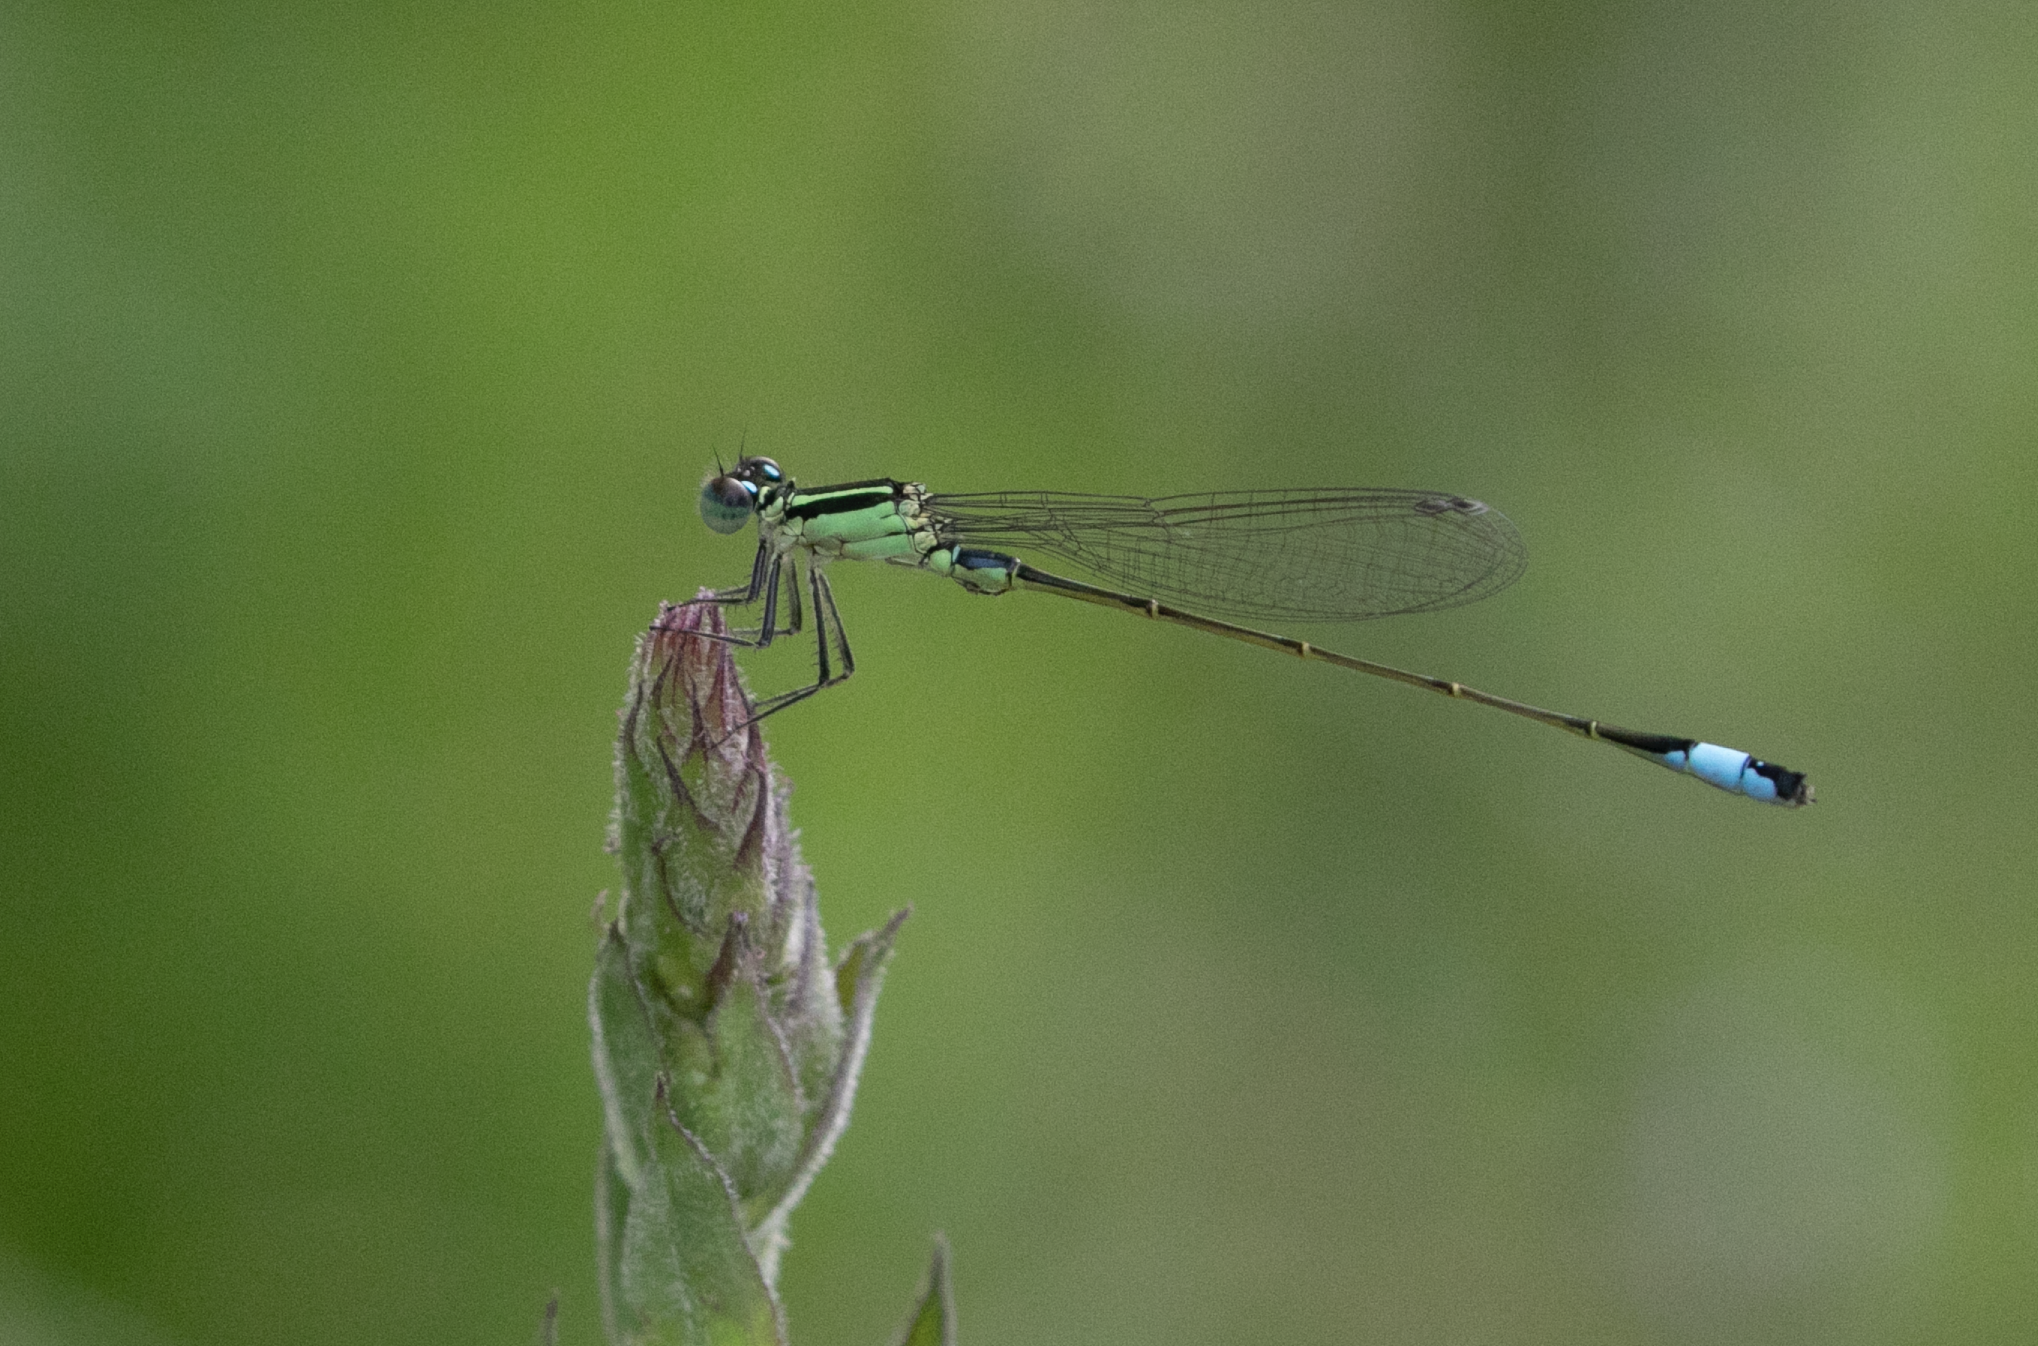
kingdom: Animalia
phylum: Arthropoda
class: Insecta
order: Odonata
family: Coenagrionidae
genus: Ischnura
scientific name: Ischnura elegans
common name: Blue-tailed damselfly
